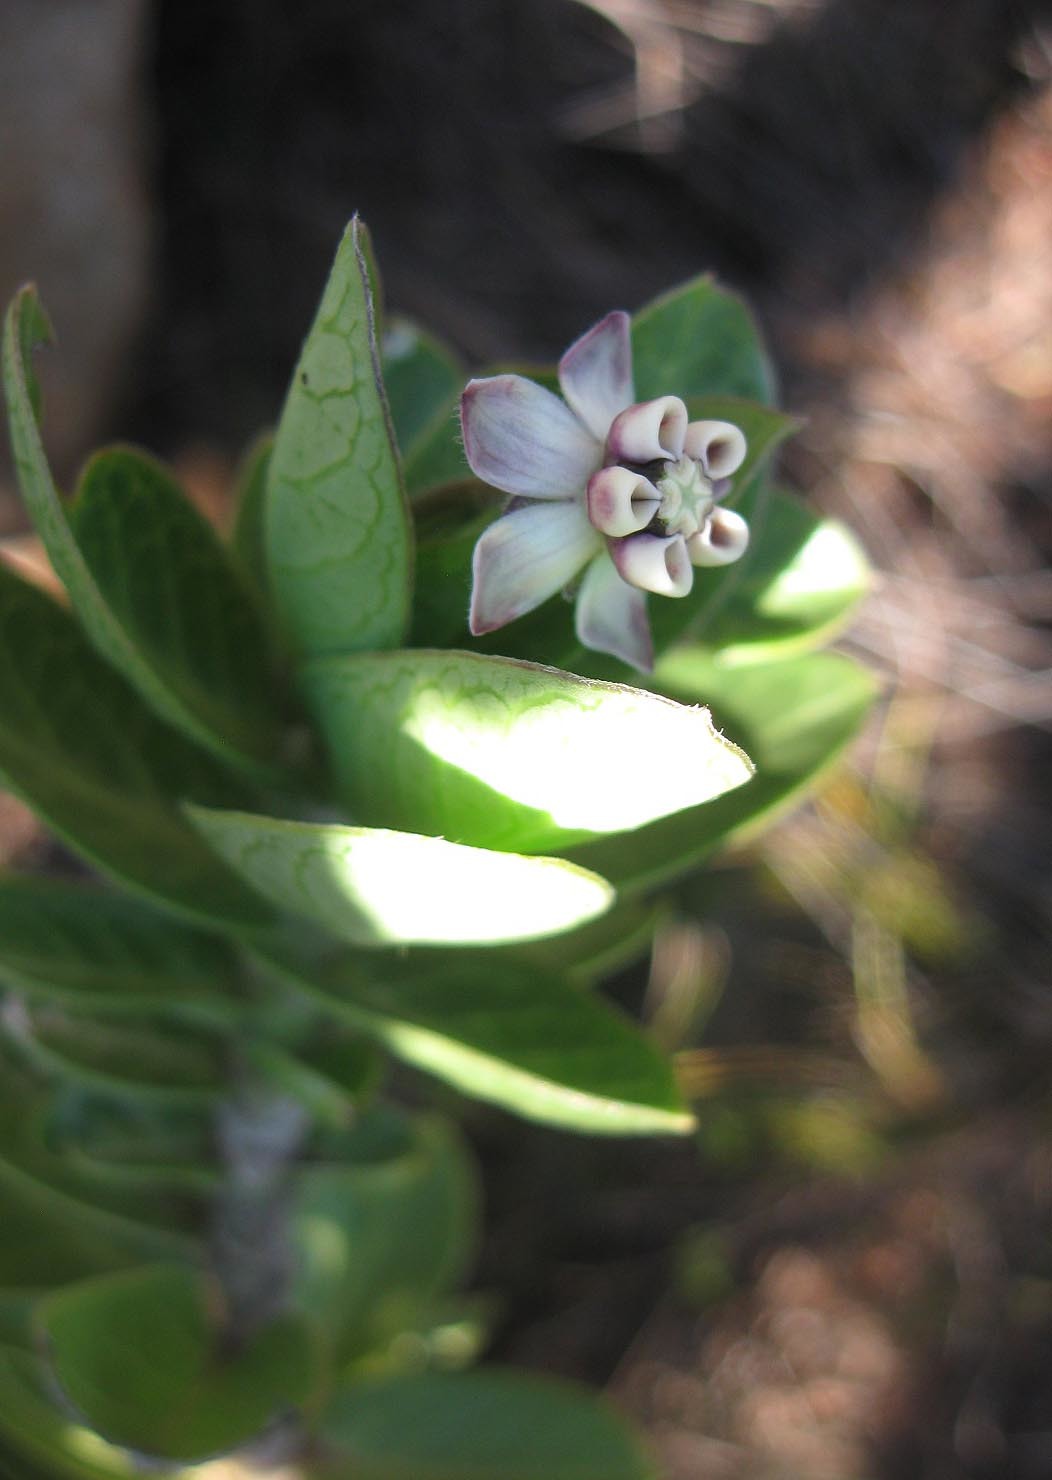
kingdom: Plantae
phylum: Tracheophyta
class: Magnoliopsida
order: Gentianales
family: Apocynaceae
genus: Gomphocarpus
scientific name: Gomphocarpus cancellatus
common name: Wild cotton
